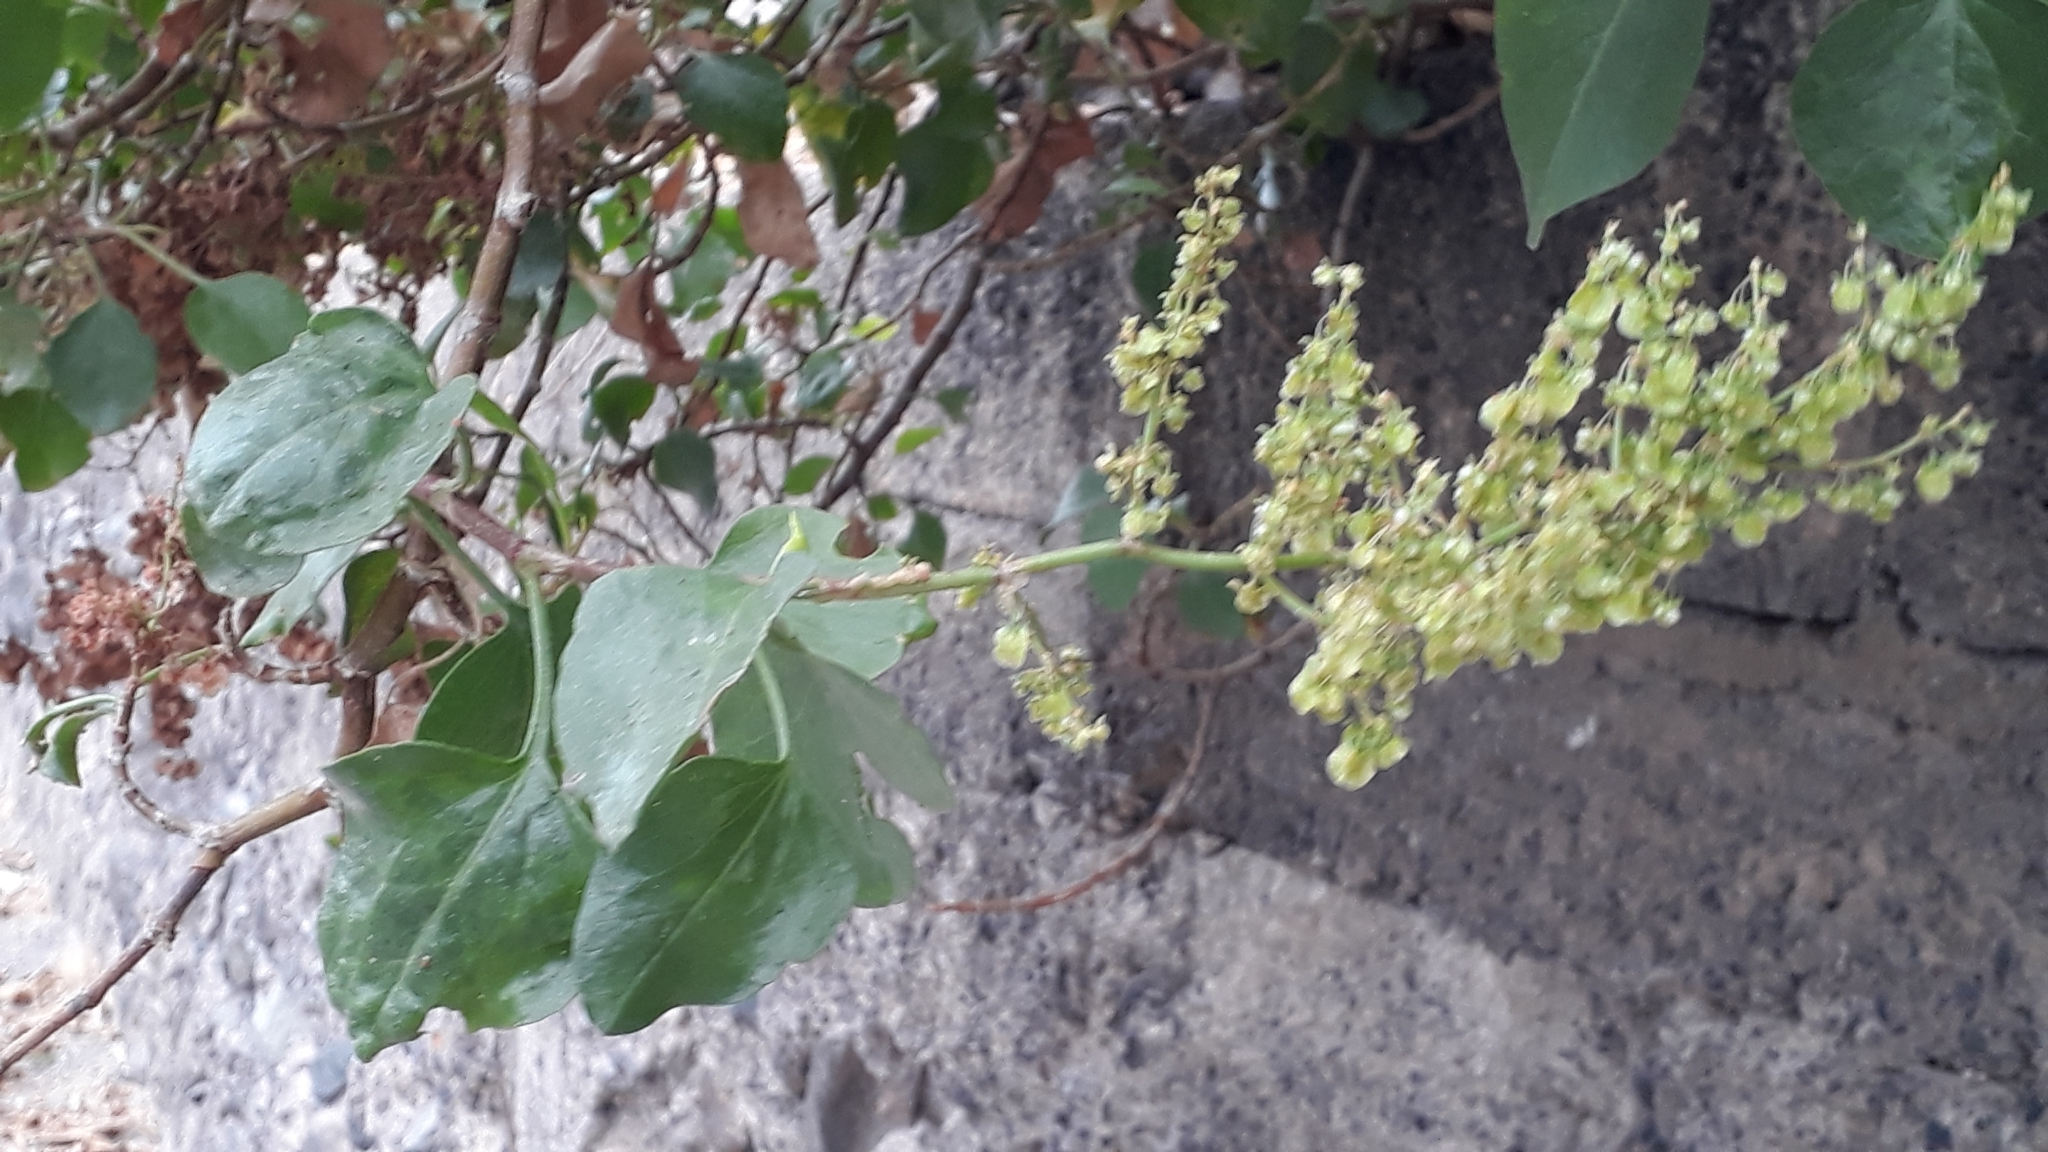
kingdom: Plantae
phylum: Tracheophyta
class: Magnoliopsida
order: Caryophyllales
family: Polygonaceae
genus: Rumex
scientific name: Rumex lunaria
